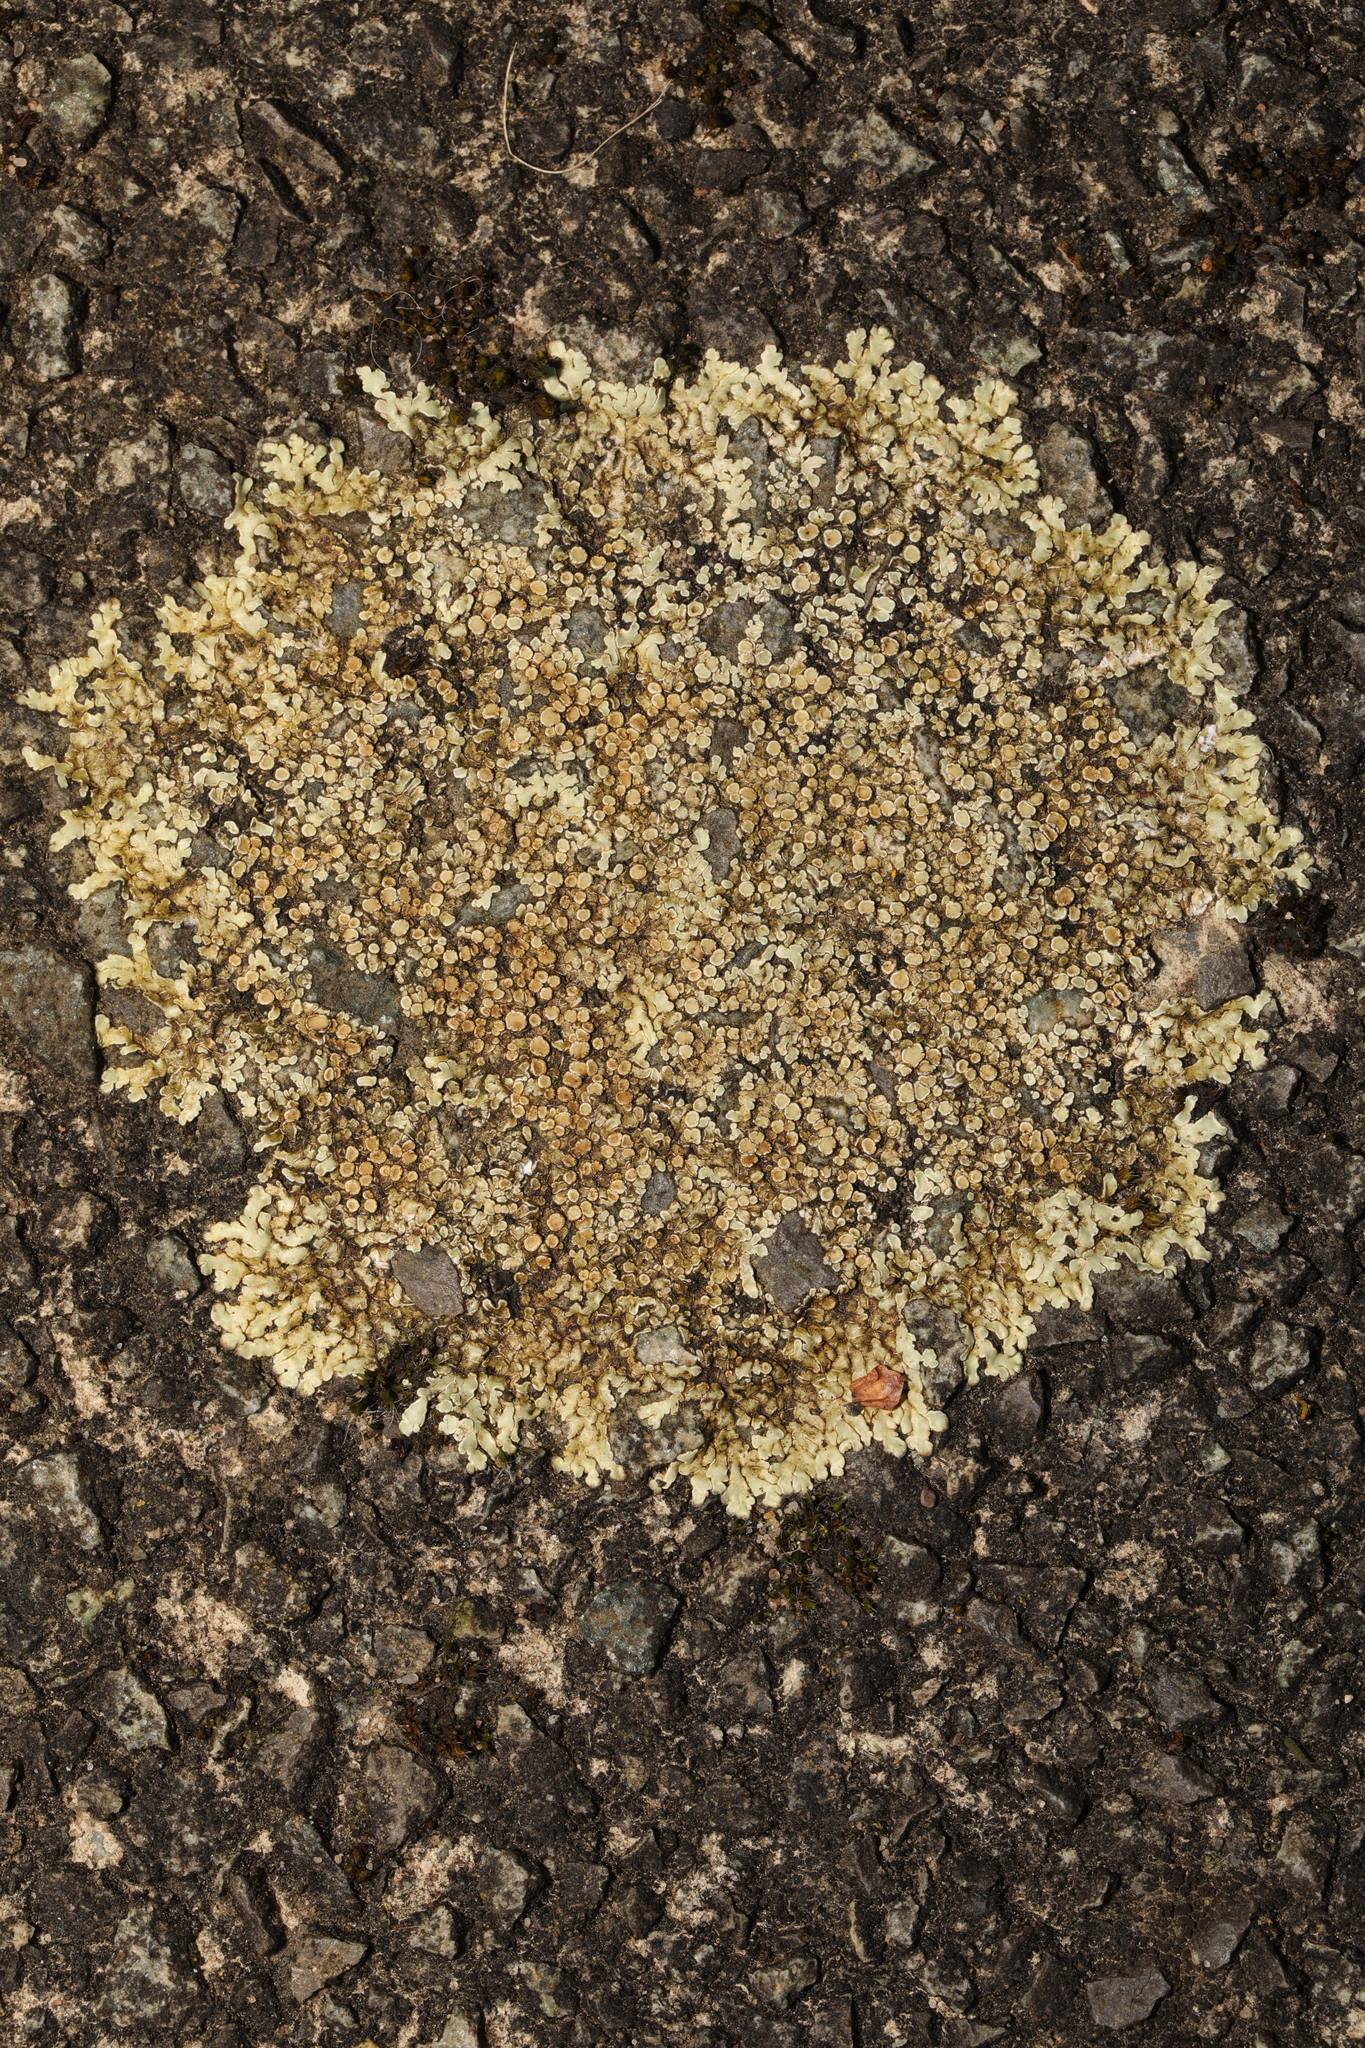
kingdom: Fungi
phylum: Ascomycota
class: Lecanoromycetes
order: Lecanorales
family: Lecanoraceae
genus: Protoparmeliopsis
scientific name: Protoparmeliopsis muralis
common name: Stonewall rim lichen
